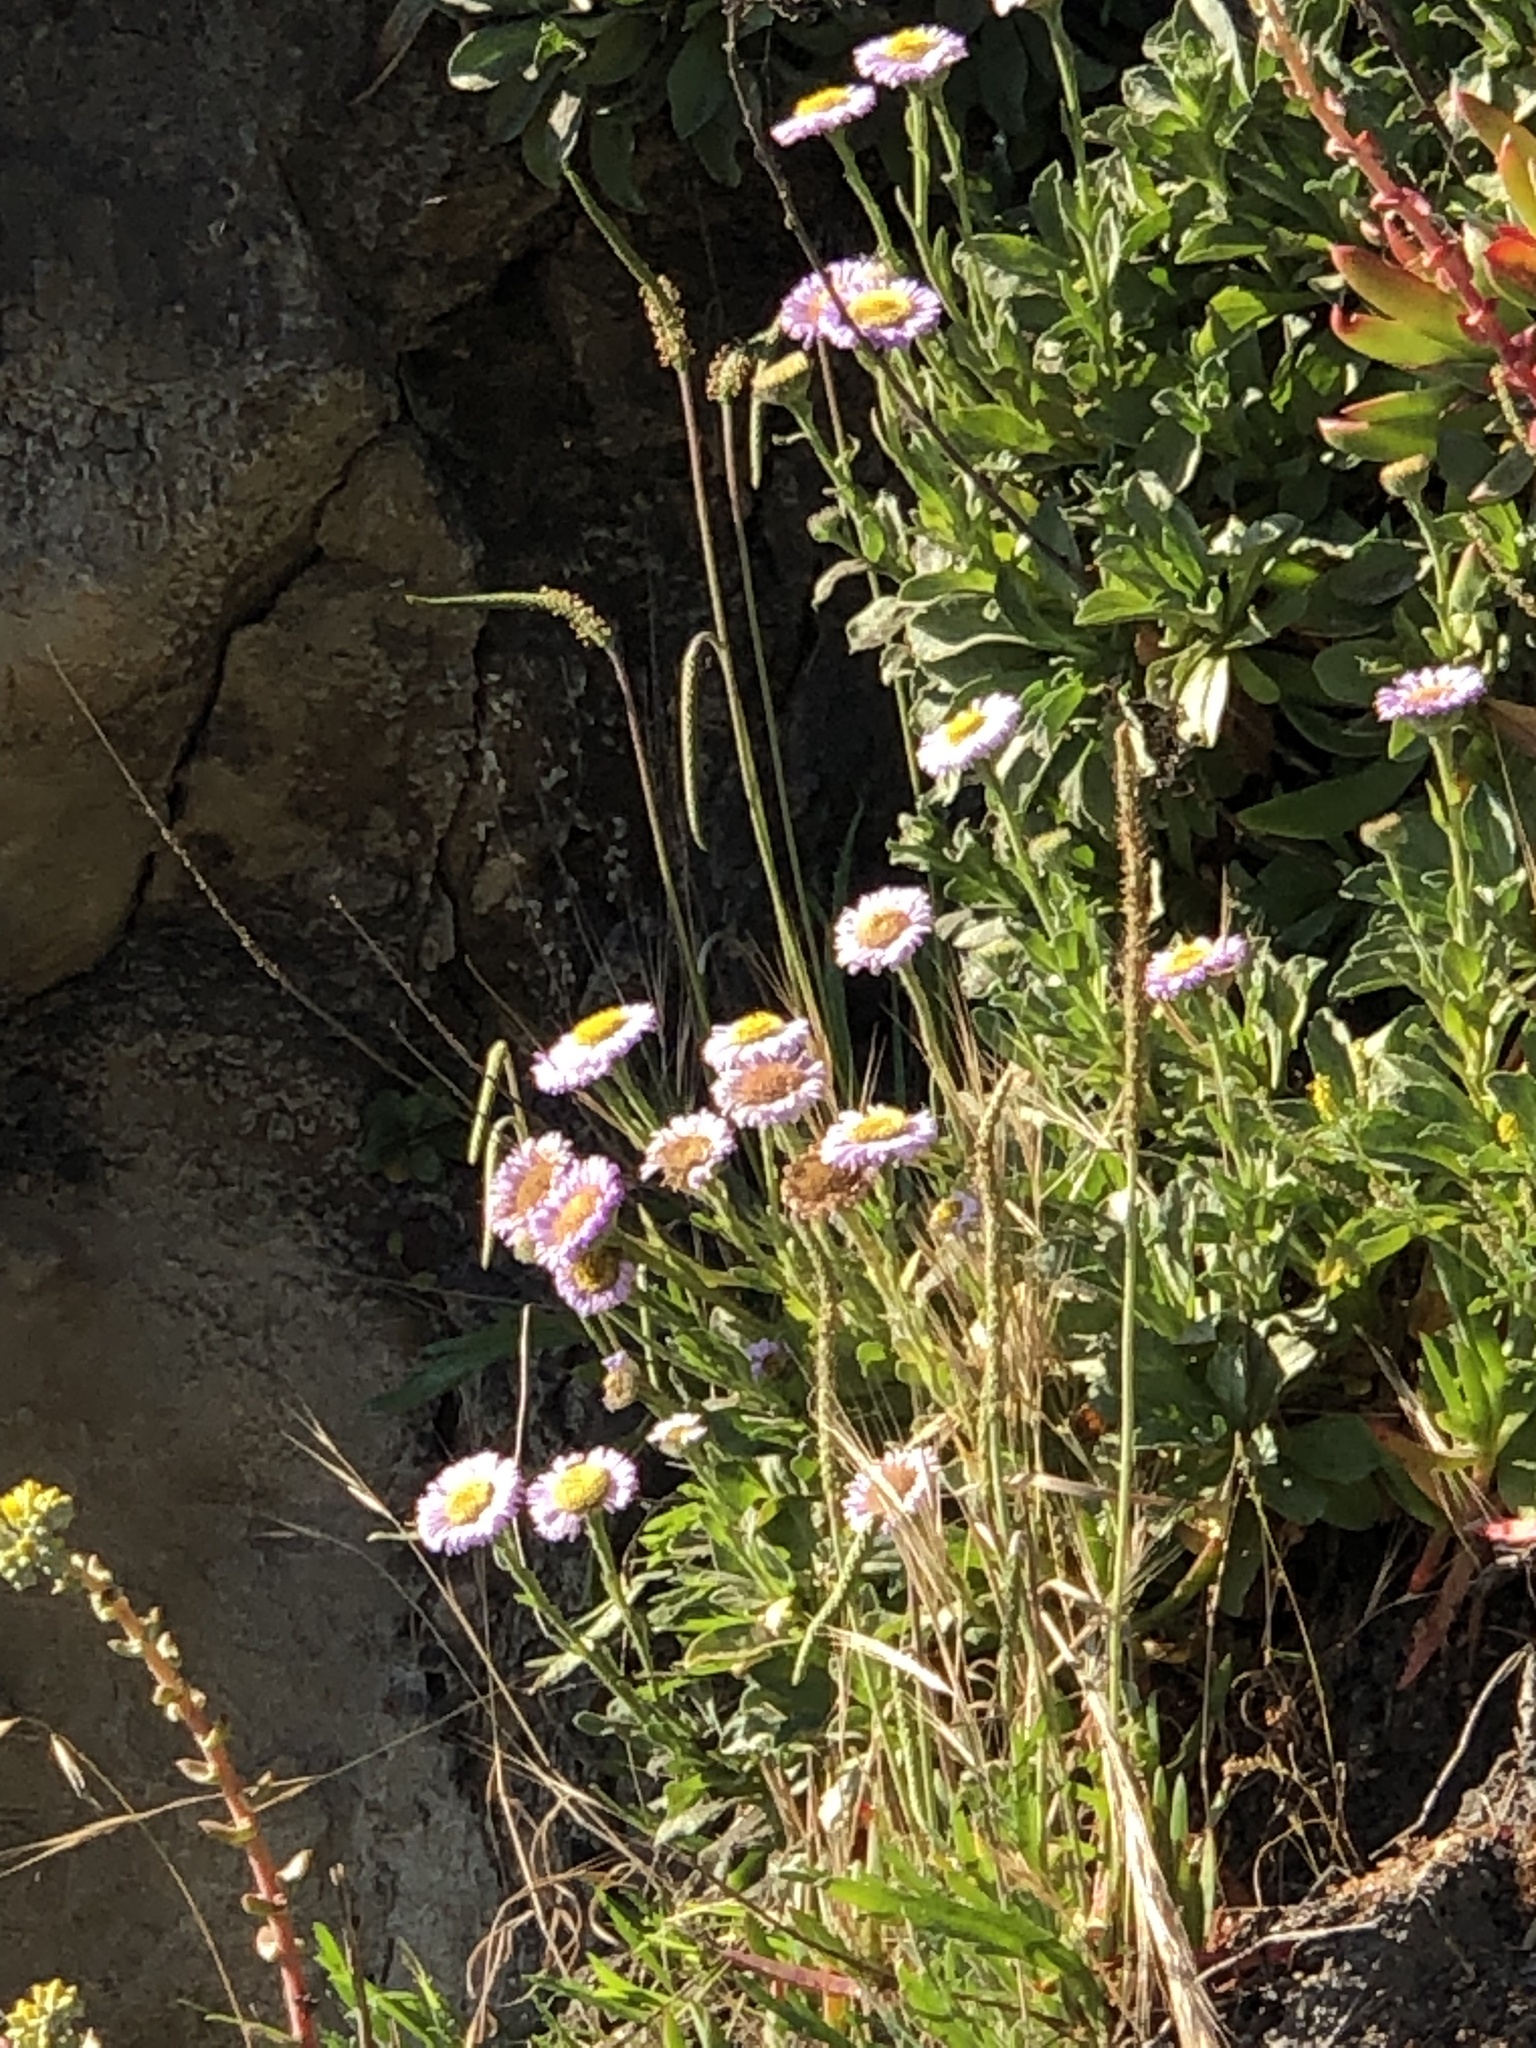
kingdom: Plantae
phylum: Tracheophyta
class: Magnoliopsida
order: Asterales
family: Asteraceae
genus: Erigeron
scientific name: Erigeron glaucus
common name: Seaside daisy
